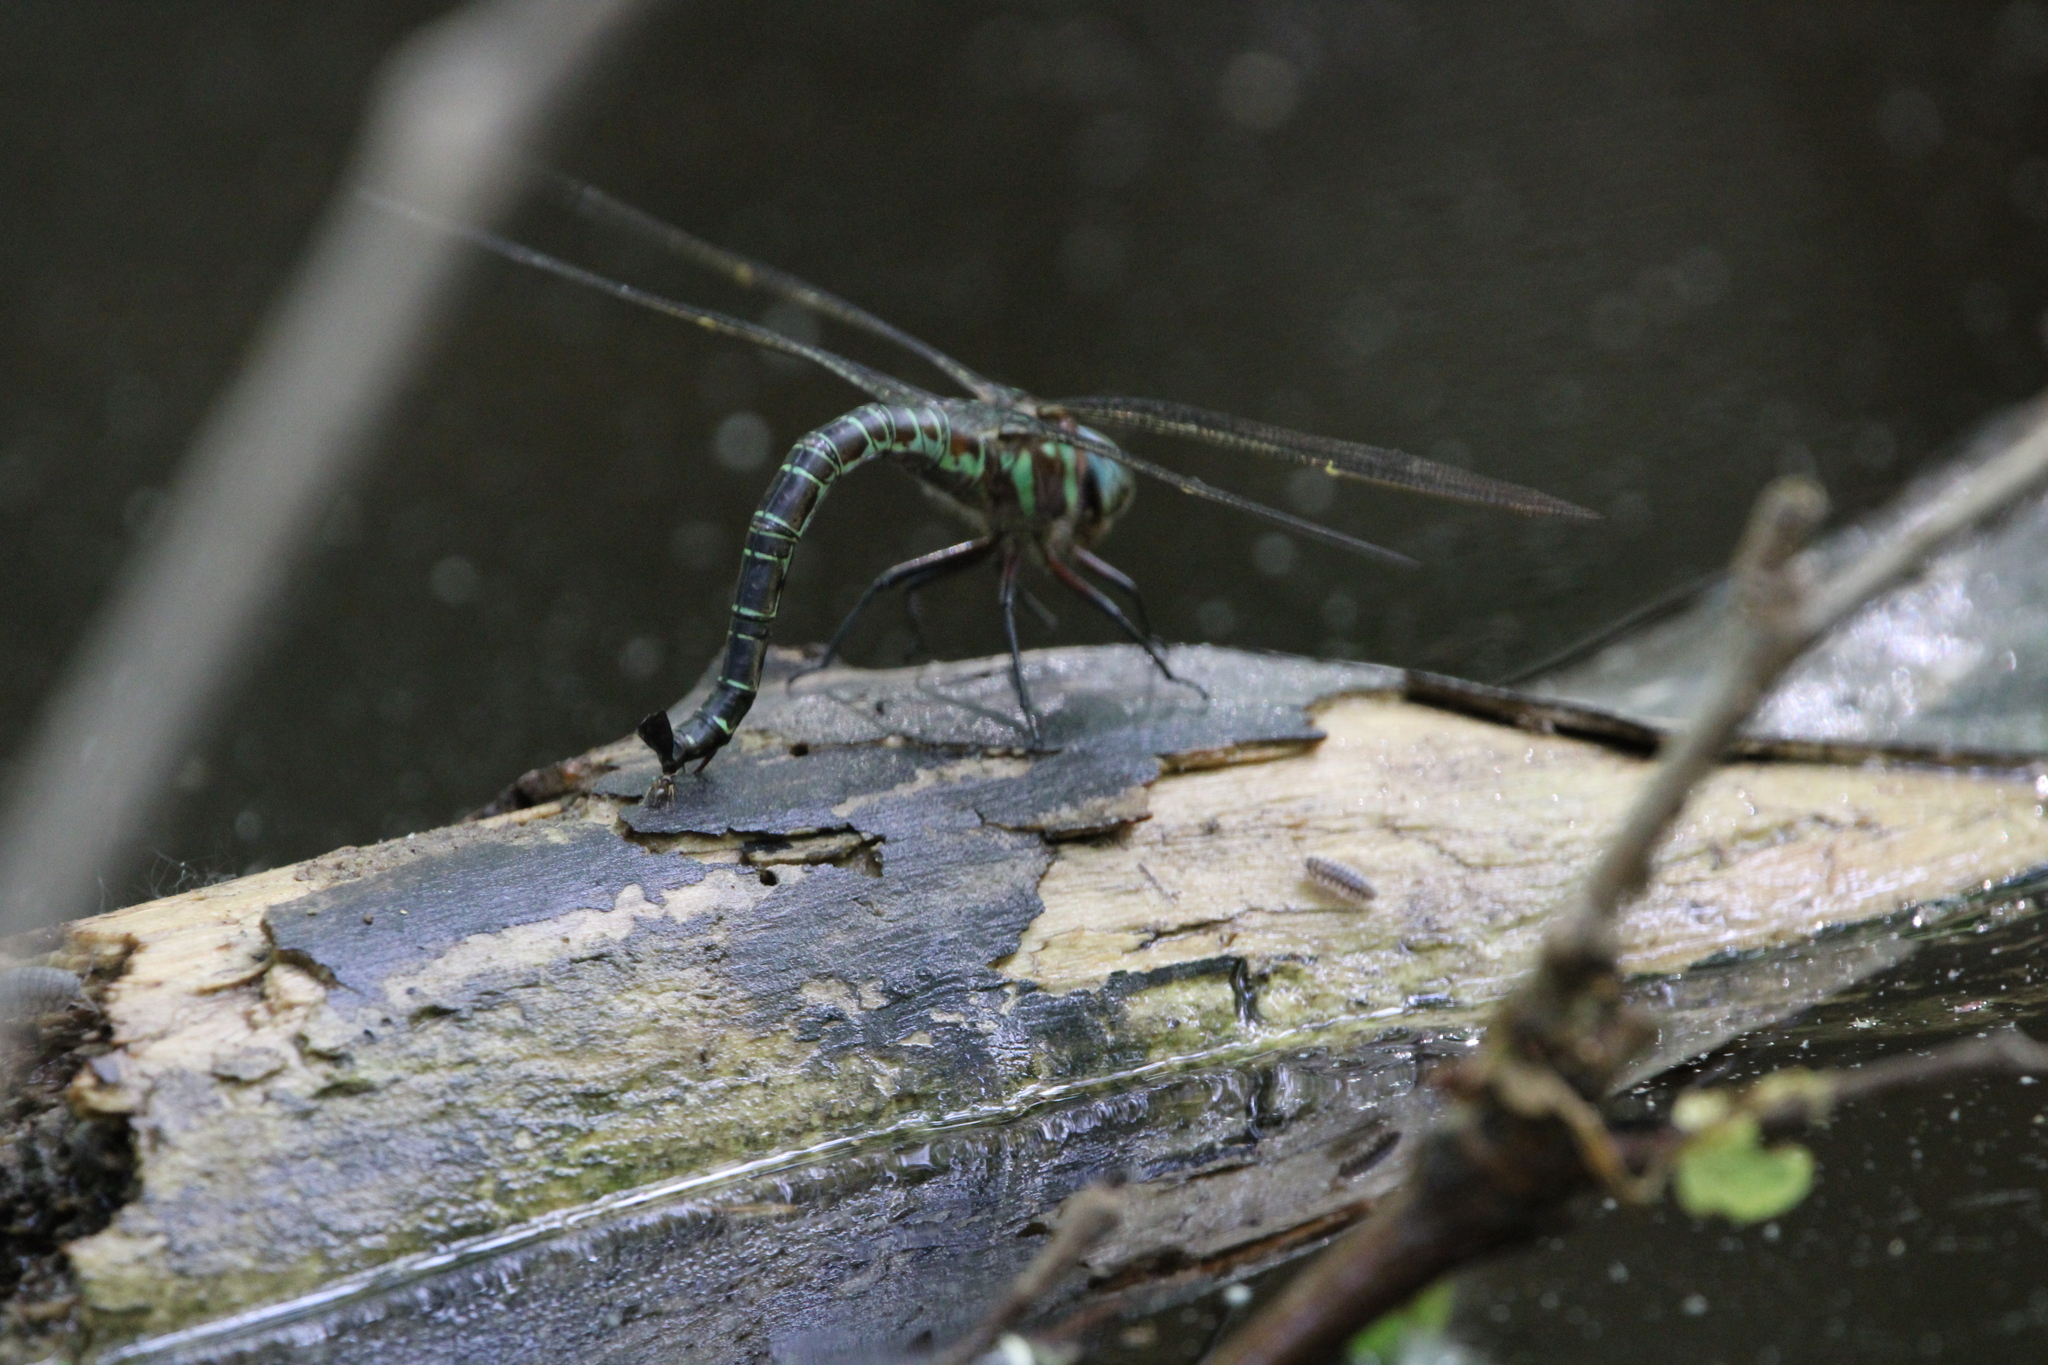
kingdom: Animalia
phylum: Arthropoda
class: Insecta
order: Odonata
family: Aeshnidae
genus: Epiaeschna
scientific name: Epiaeschna heros
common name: Swamp darner
